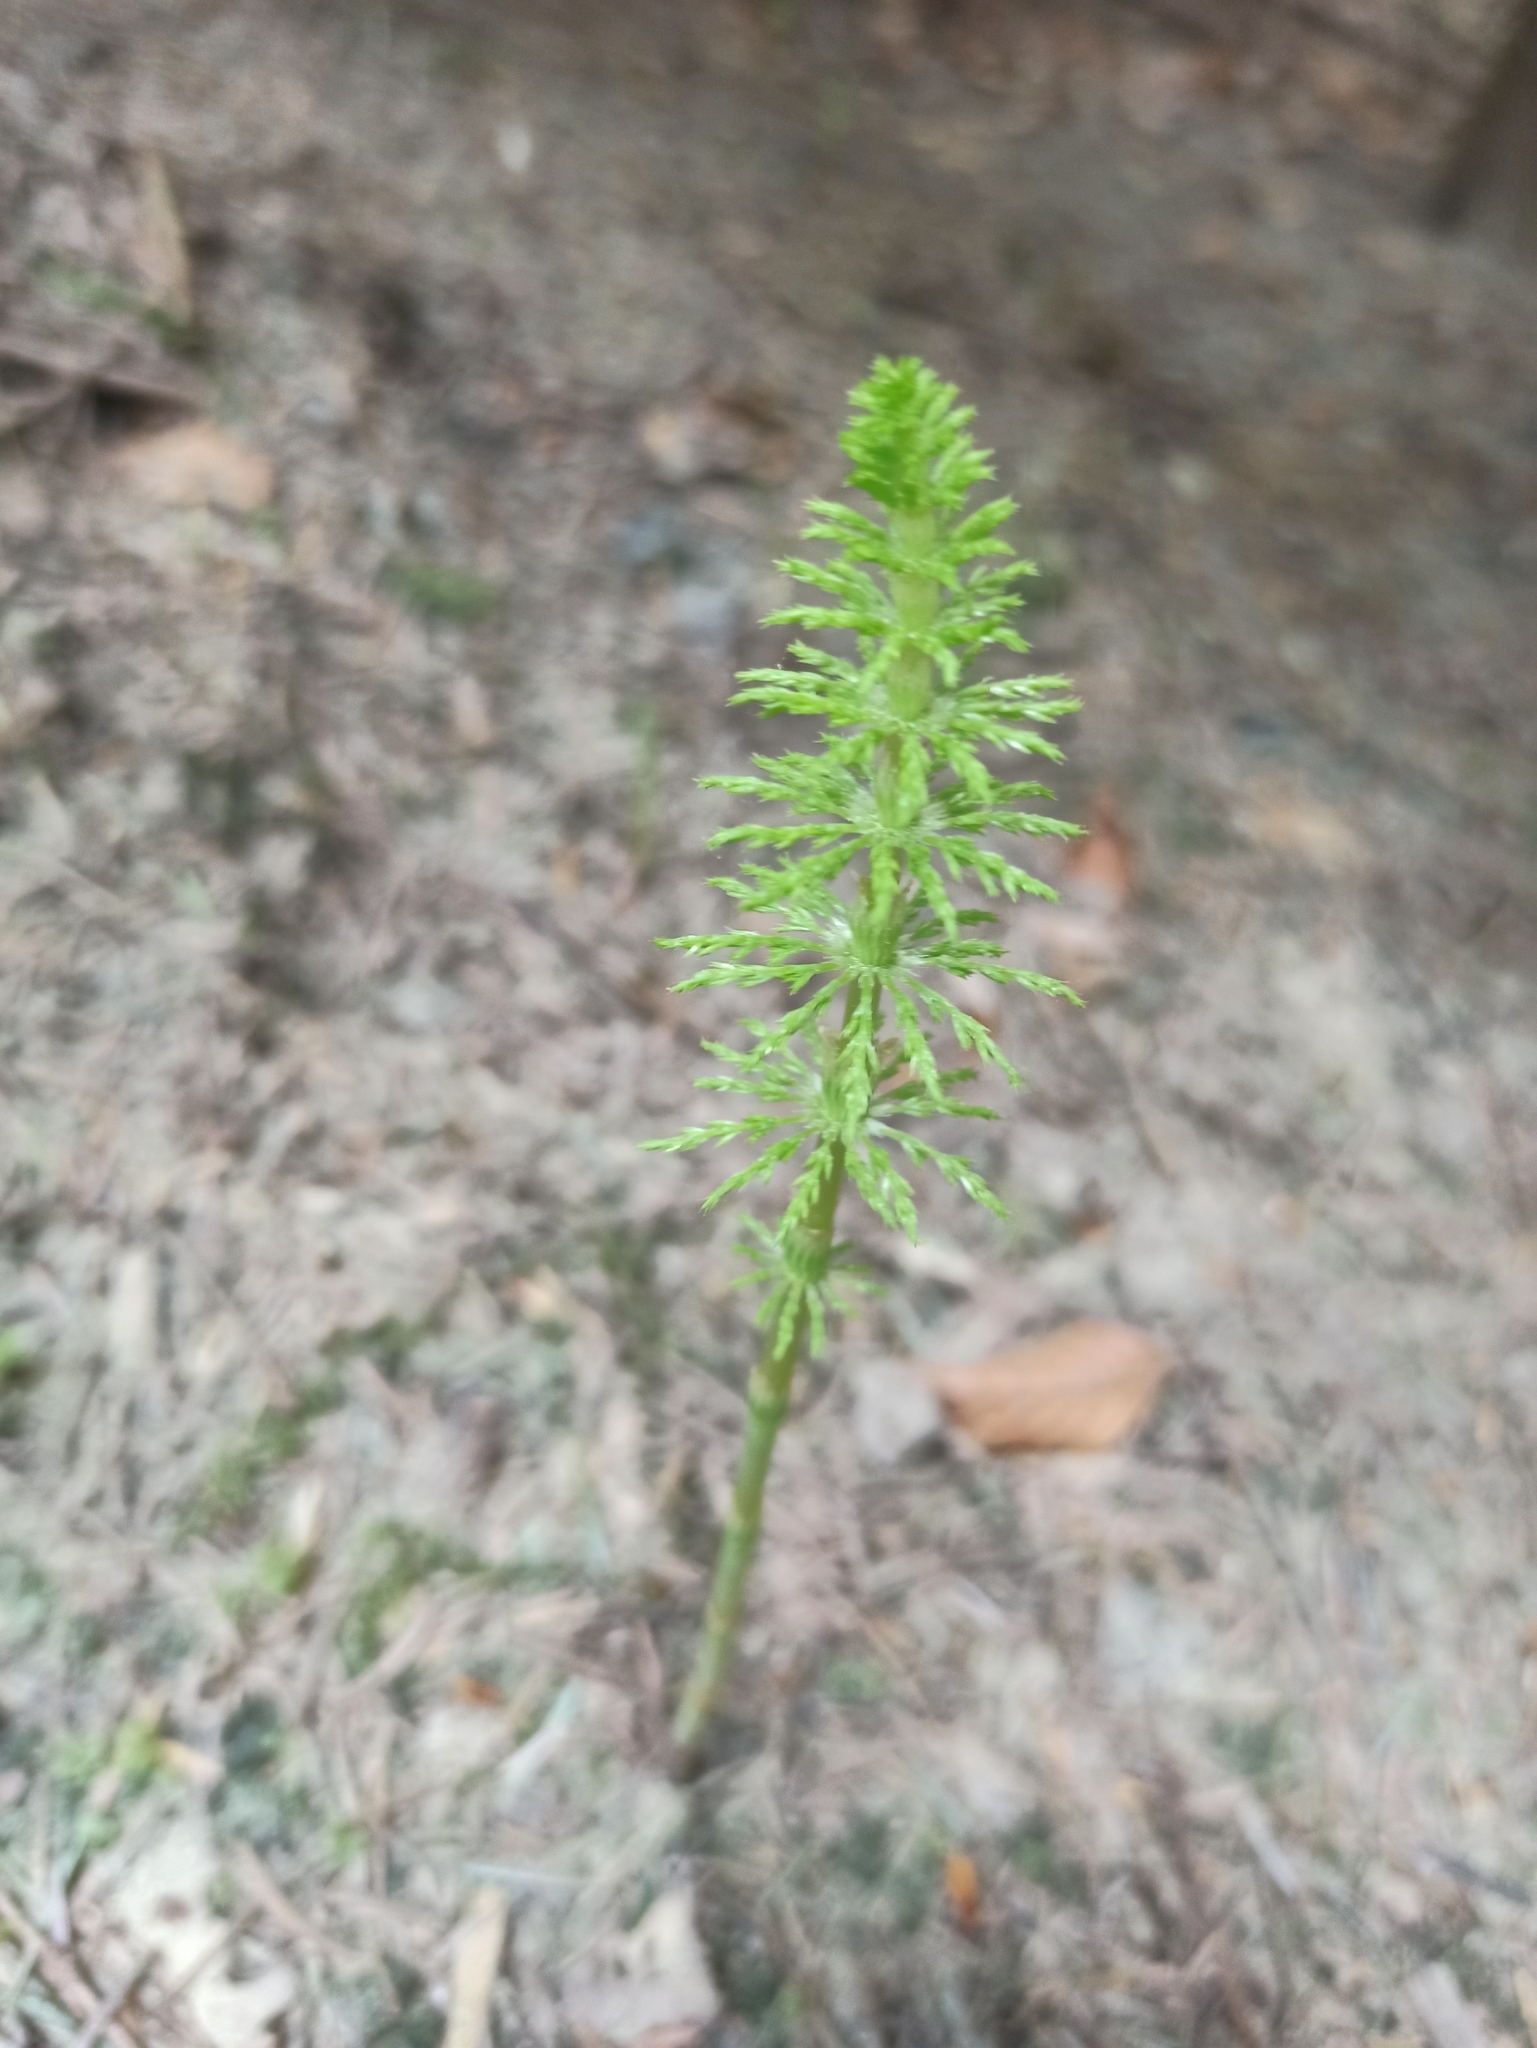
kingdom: Plantae
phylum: Tracheophyta
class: Polypodiopsida
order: Equisetales
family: Equisetaceae
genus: Equisetum
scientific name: Equisetum sylvaticum
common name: Wood horsetail
